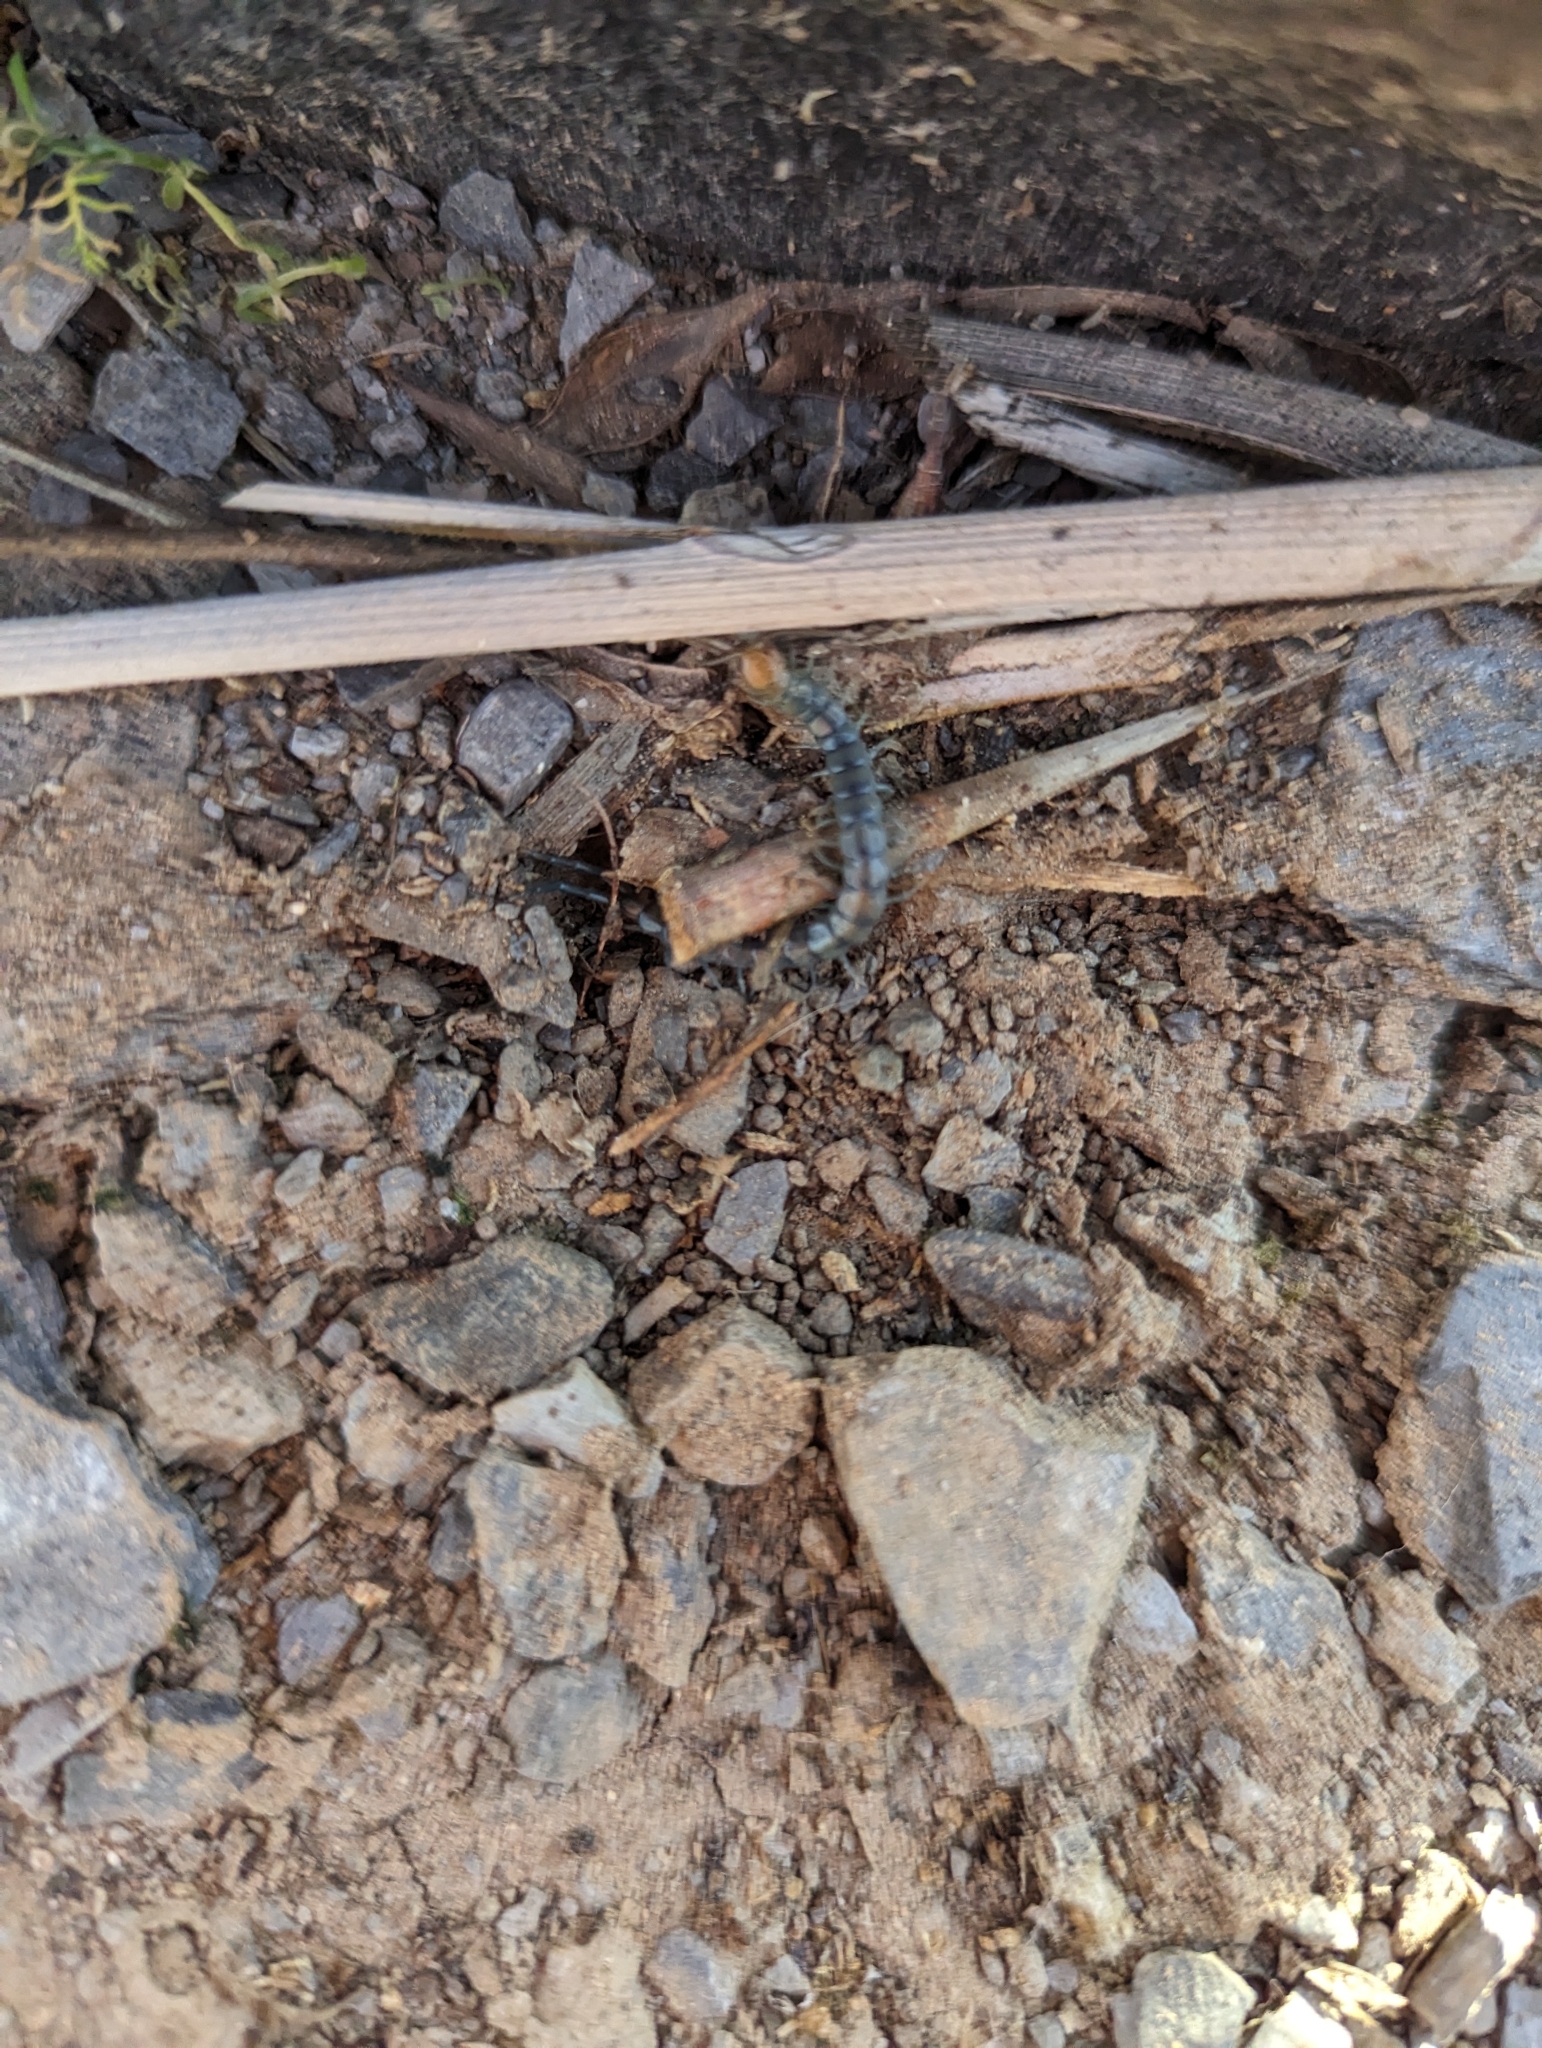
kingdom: Animalia
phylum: Arthropoda
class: Chilopoda
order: Scolopendromorpha
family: Scolopendridae
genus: Scolopendra
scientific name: Scolopendra polymorpha
